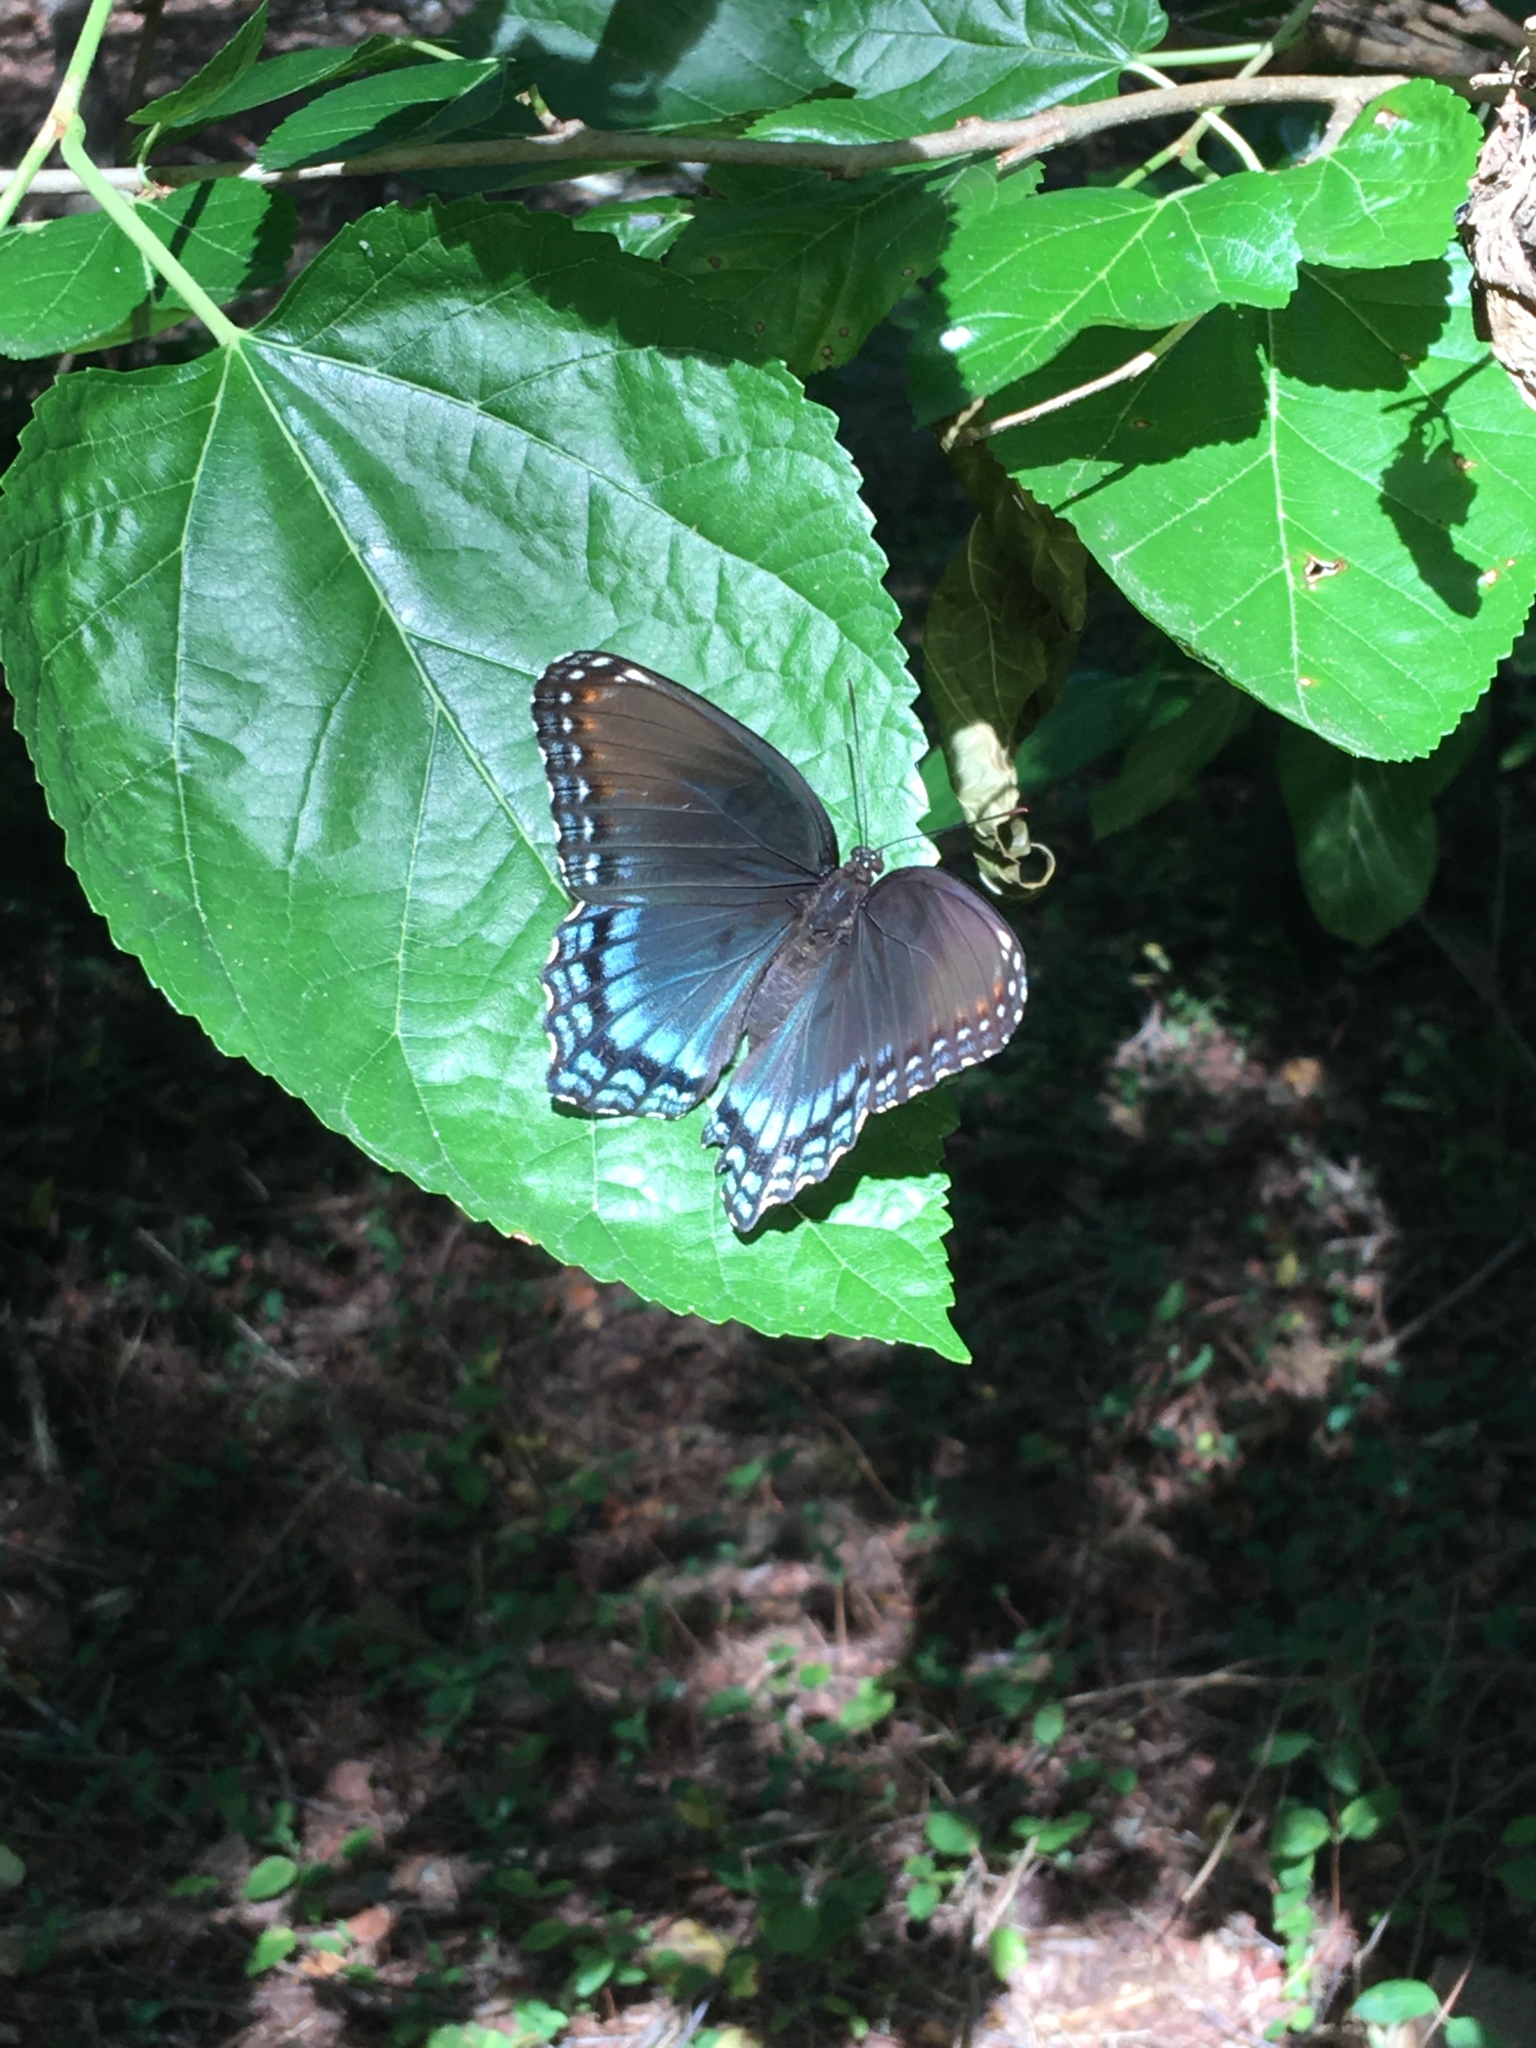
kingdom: Animalia
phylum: Arthropoda
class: Insecta
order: Lepidoptera
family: Nymphalidae
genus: Limenitis
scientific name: Limenitis astyanax
